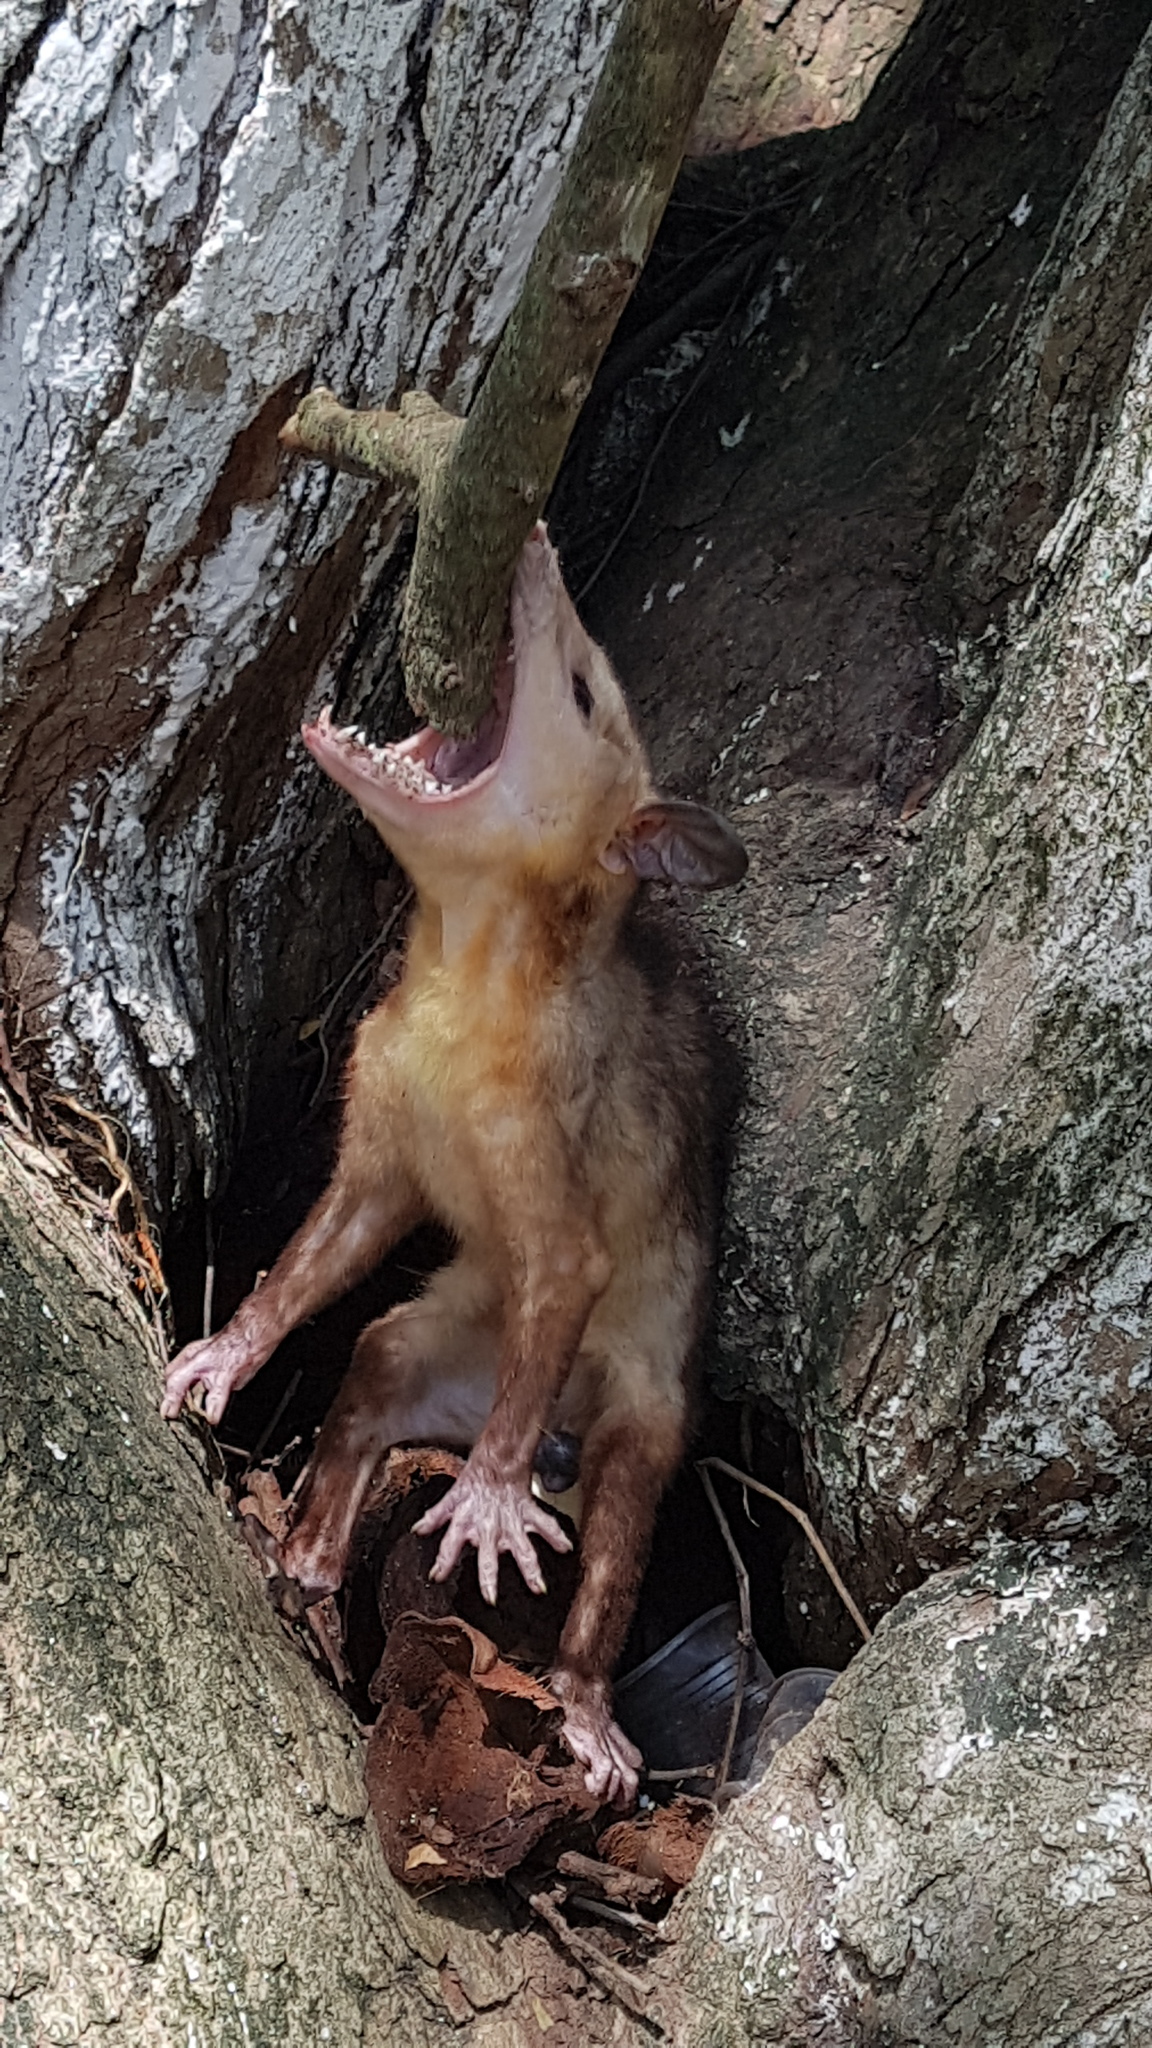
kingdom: Animalia
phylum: Chordata
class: Mammalia
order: Didelphimorphia
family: Didelphidae
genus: Didelphis
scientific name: Didelphis marsupialis
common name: Common opossum
